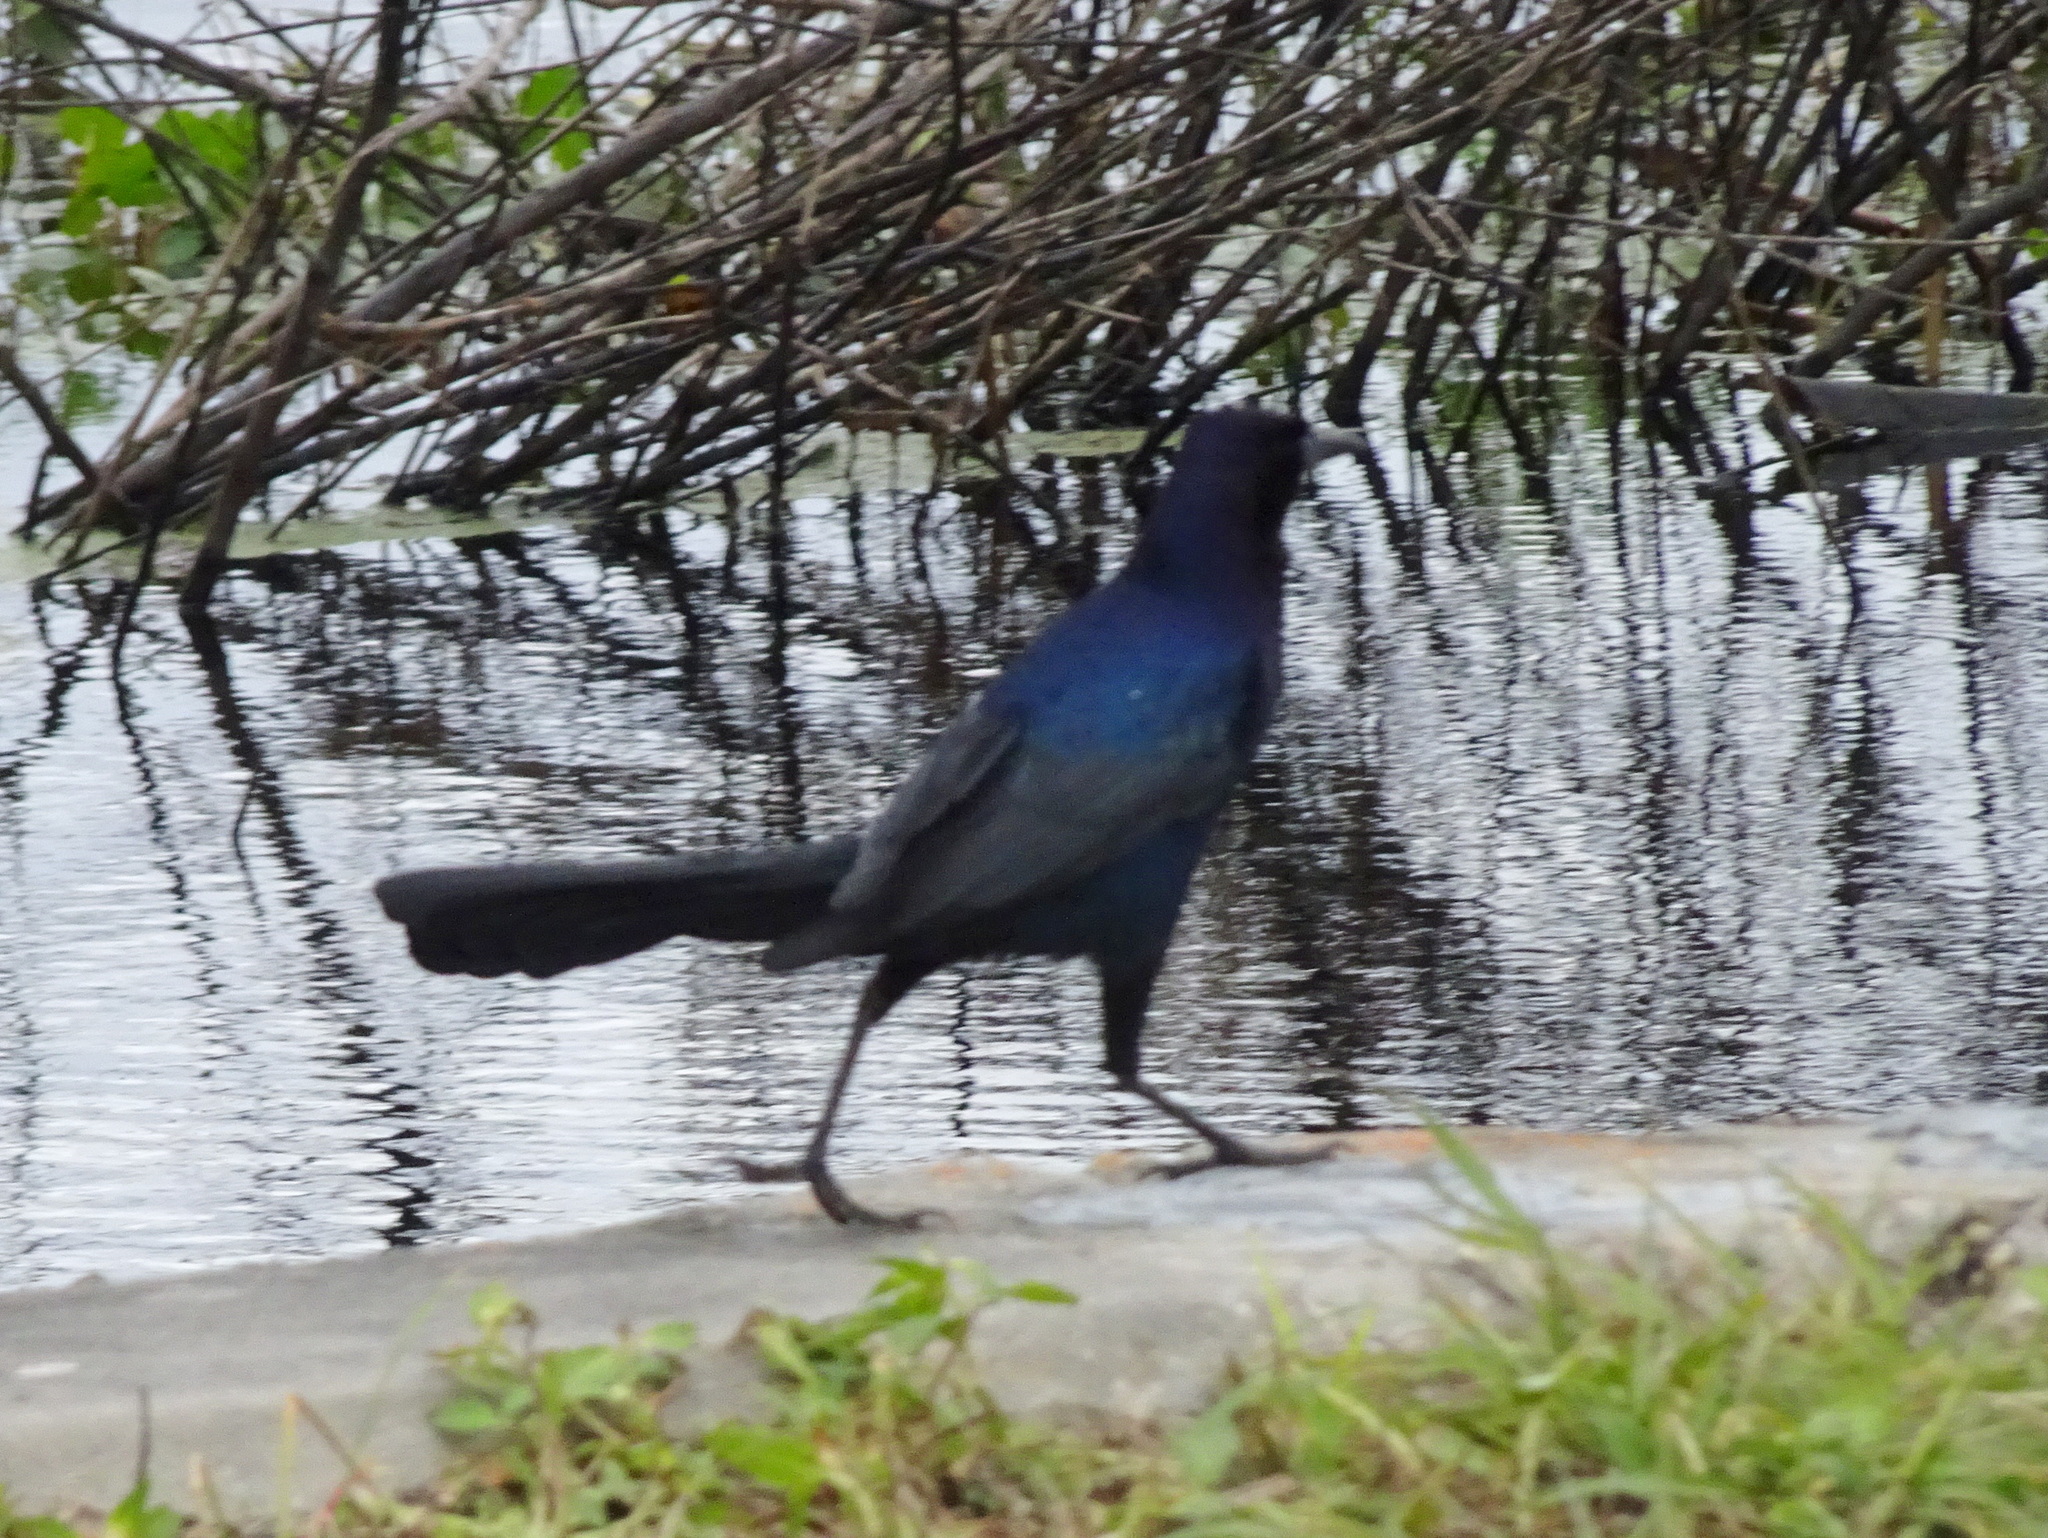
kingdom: Animalia
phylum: Chordata
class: Aves
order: Passeriformes
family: Icteridae
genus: Quiscalus
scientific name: Quiscalus major
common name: Boat-tailed grackle
